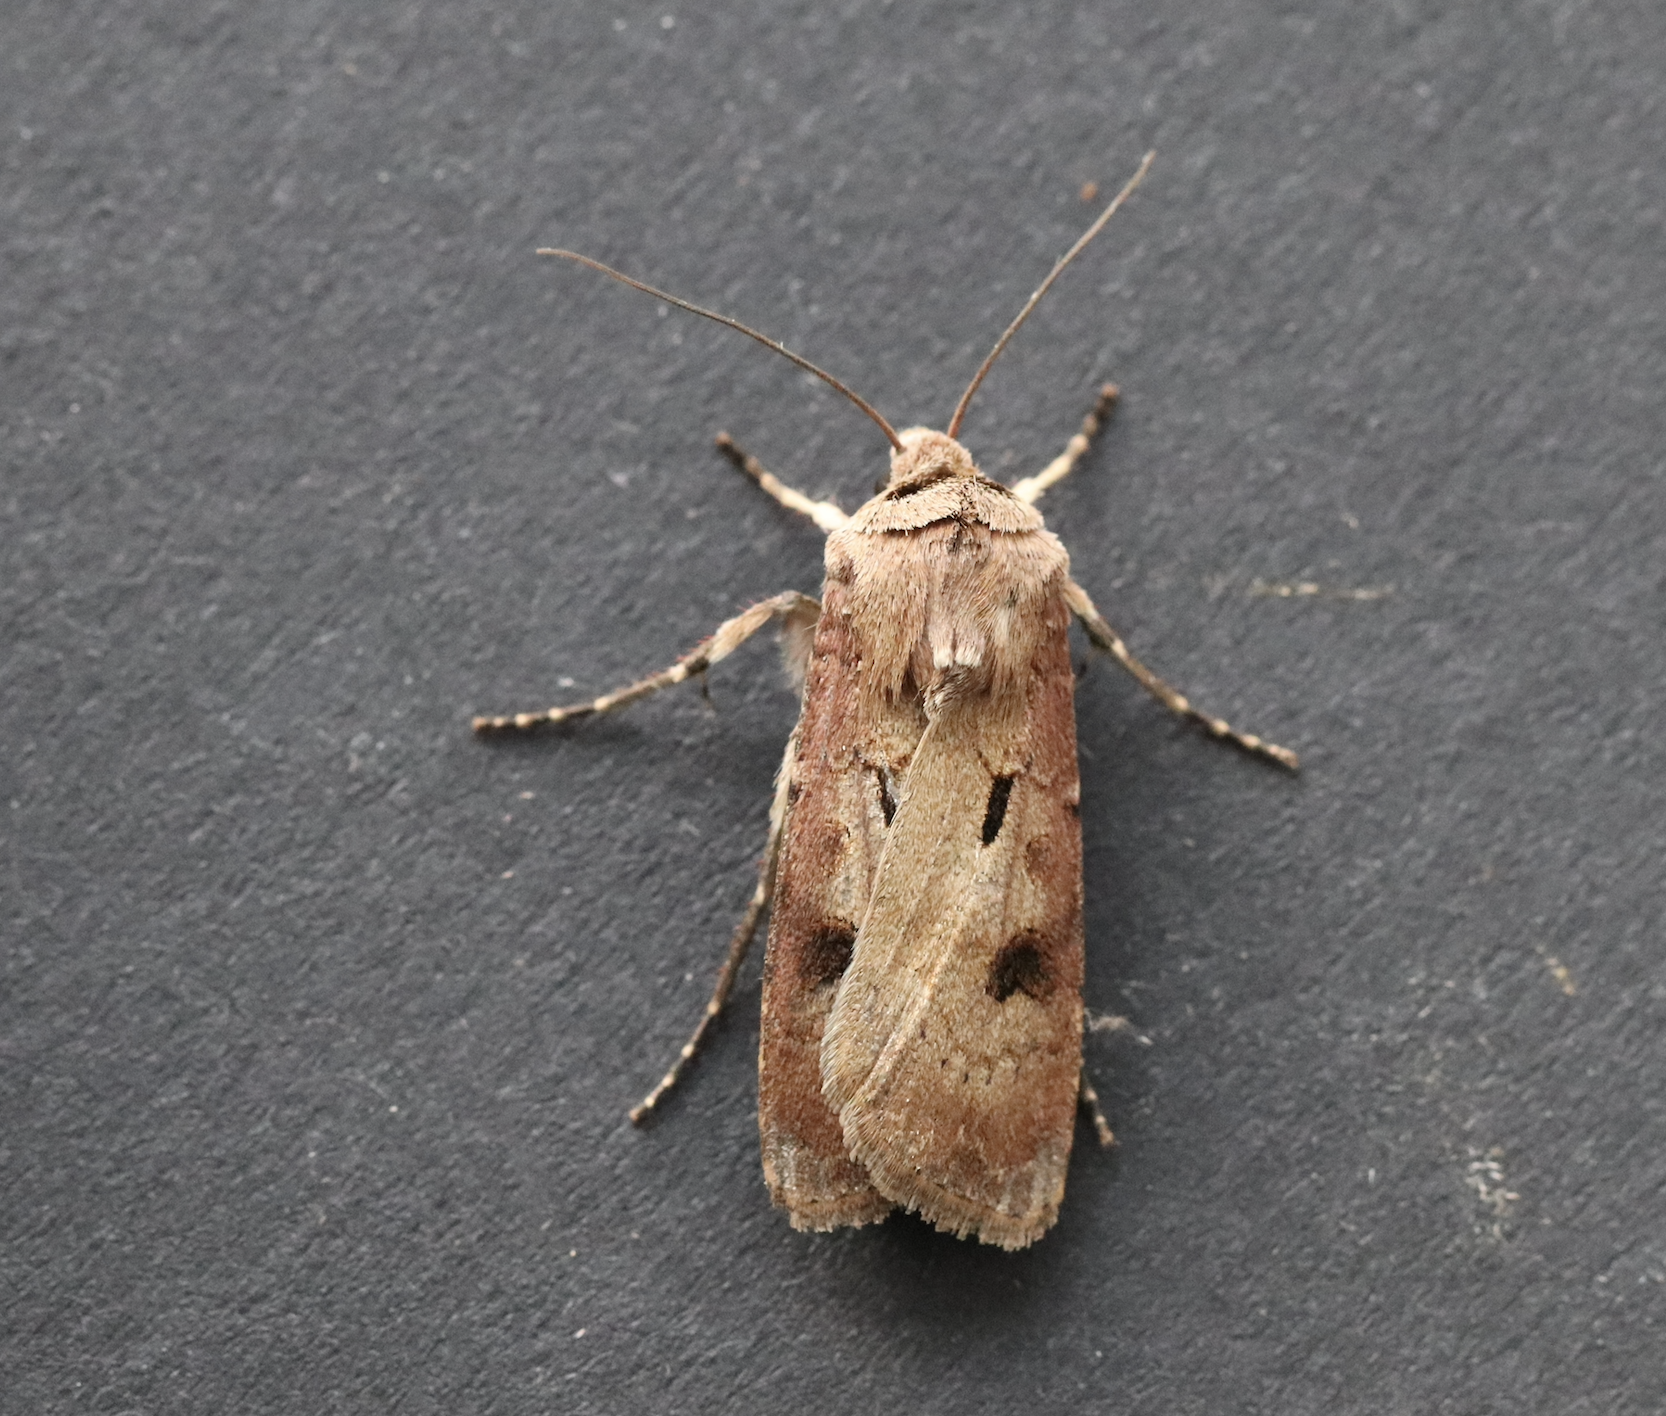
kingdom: Animalia
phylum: Arthropoda
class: Insecta
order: Lepidoptera
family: Noctuidae
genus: Agrotis
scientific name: Agrotis exclamationis
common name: Heart and dart
